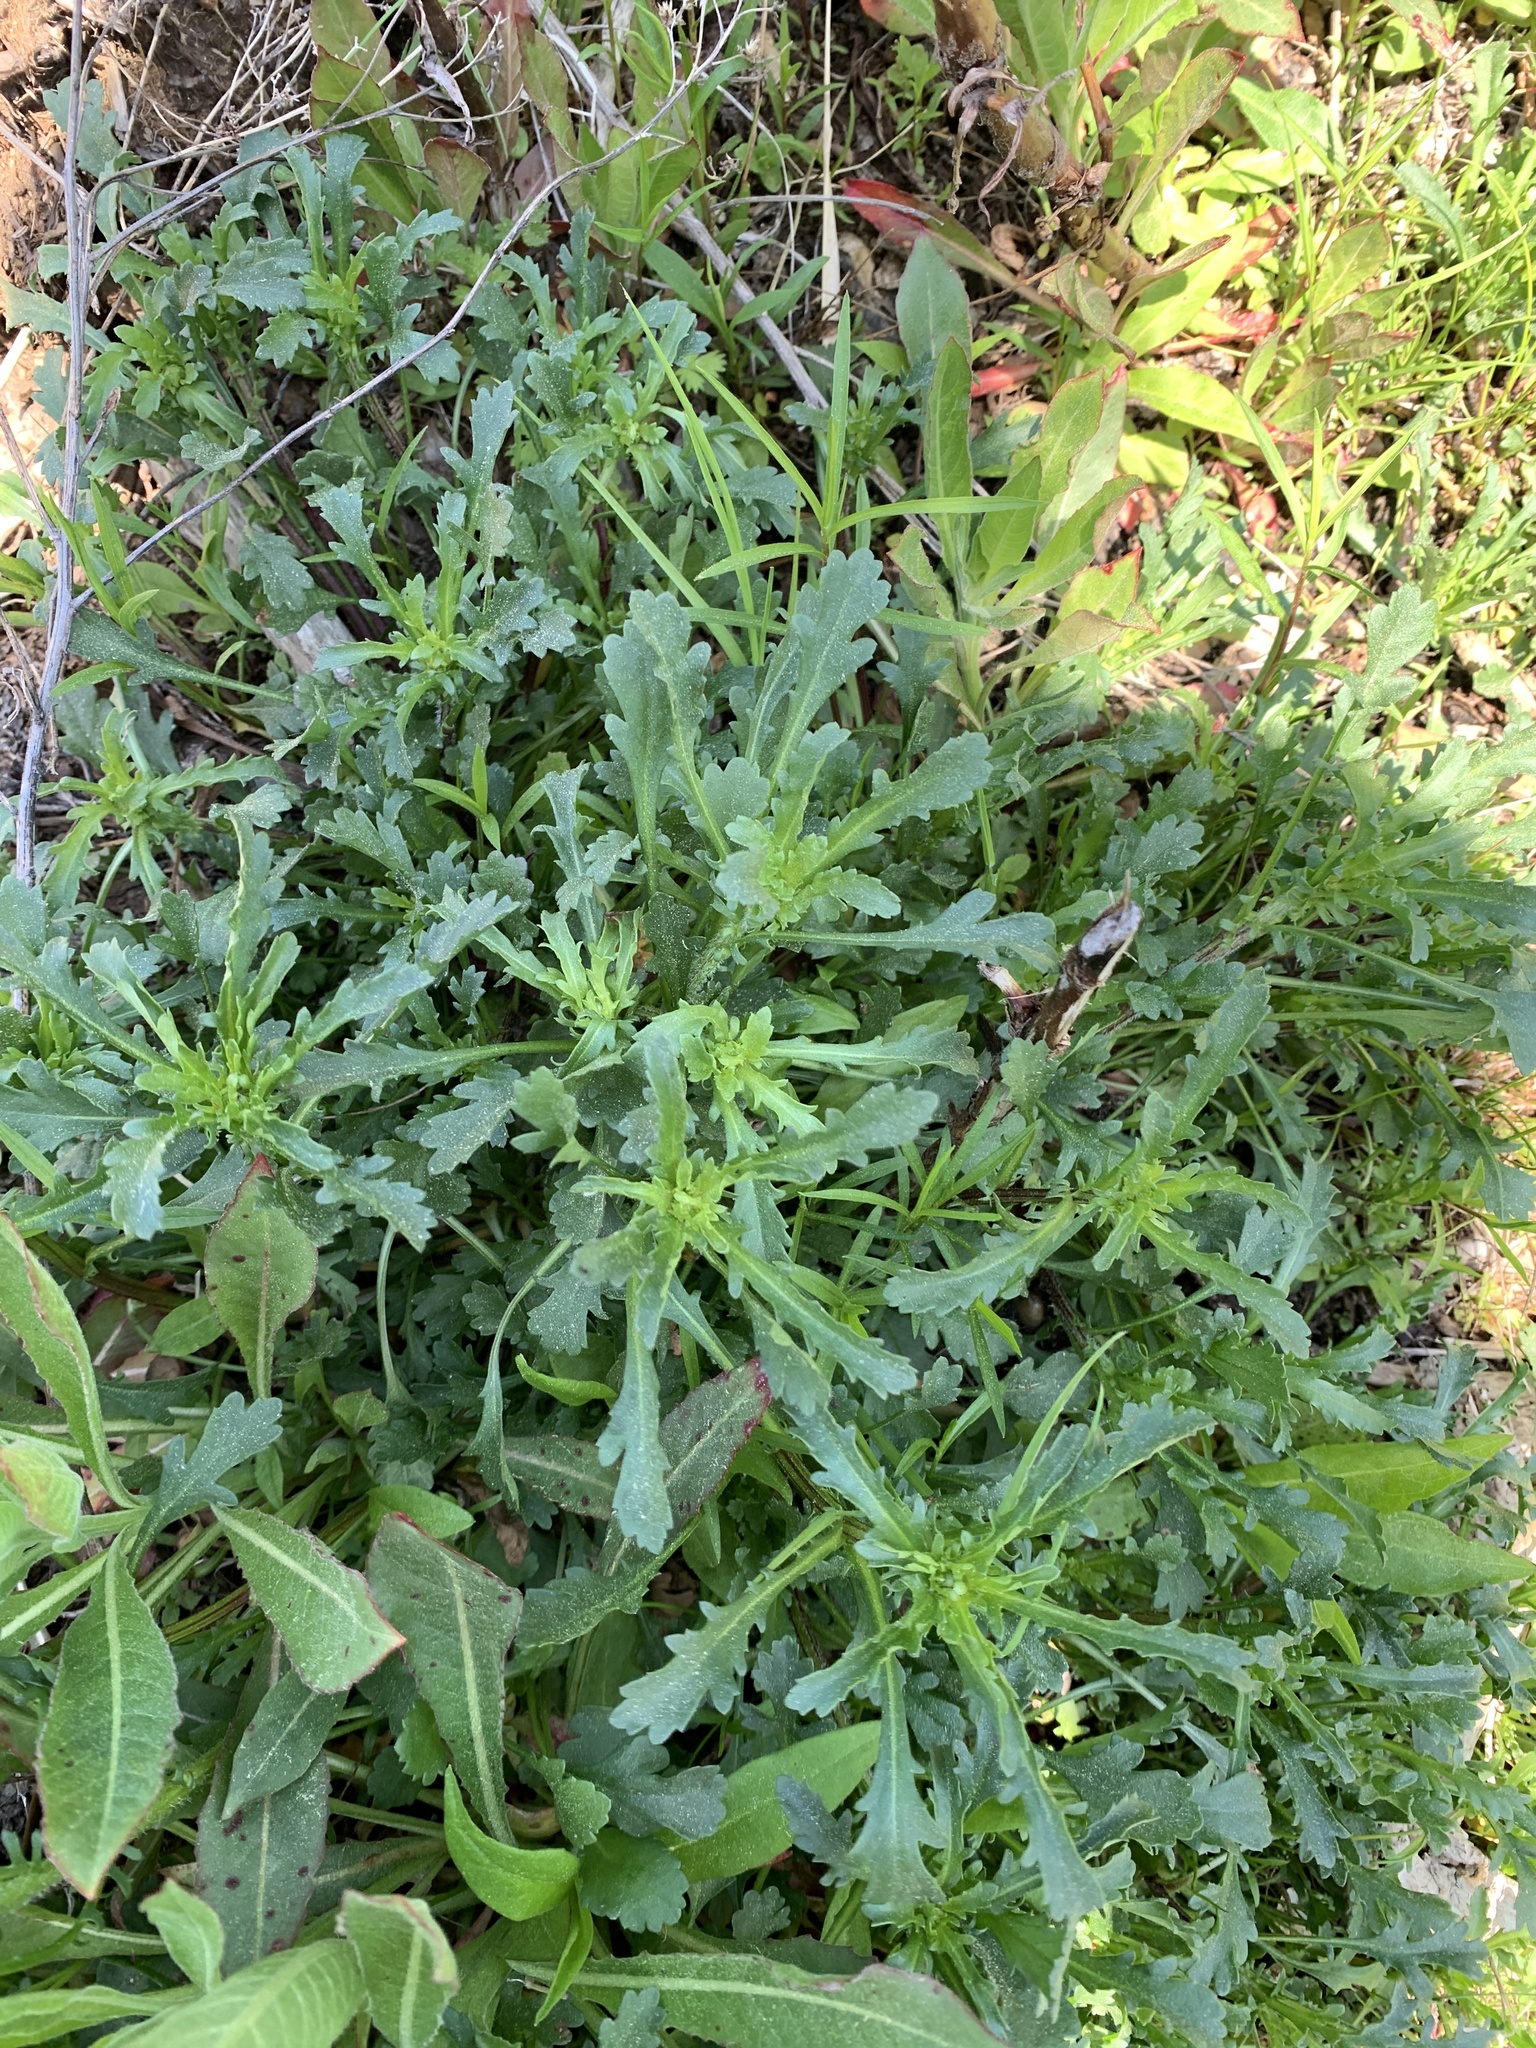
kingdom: Plantae
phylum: Tracheophyta
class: Magnoliopsida
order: Asterales
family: Asteraceae
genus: Leucanthemum
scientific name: Leucanthemum vulgare
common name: Oxeye daisy
